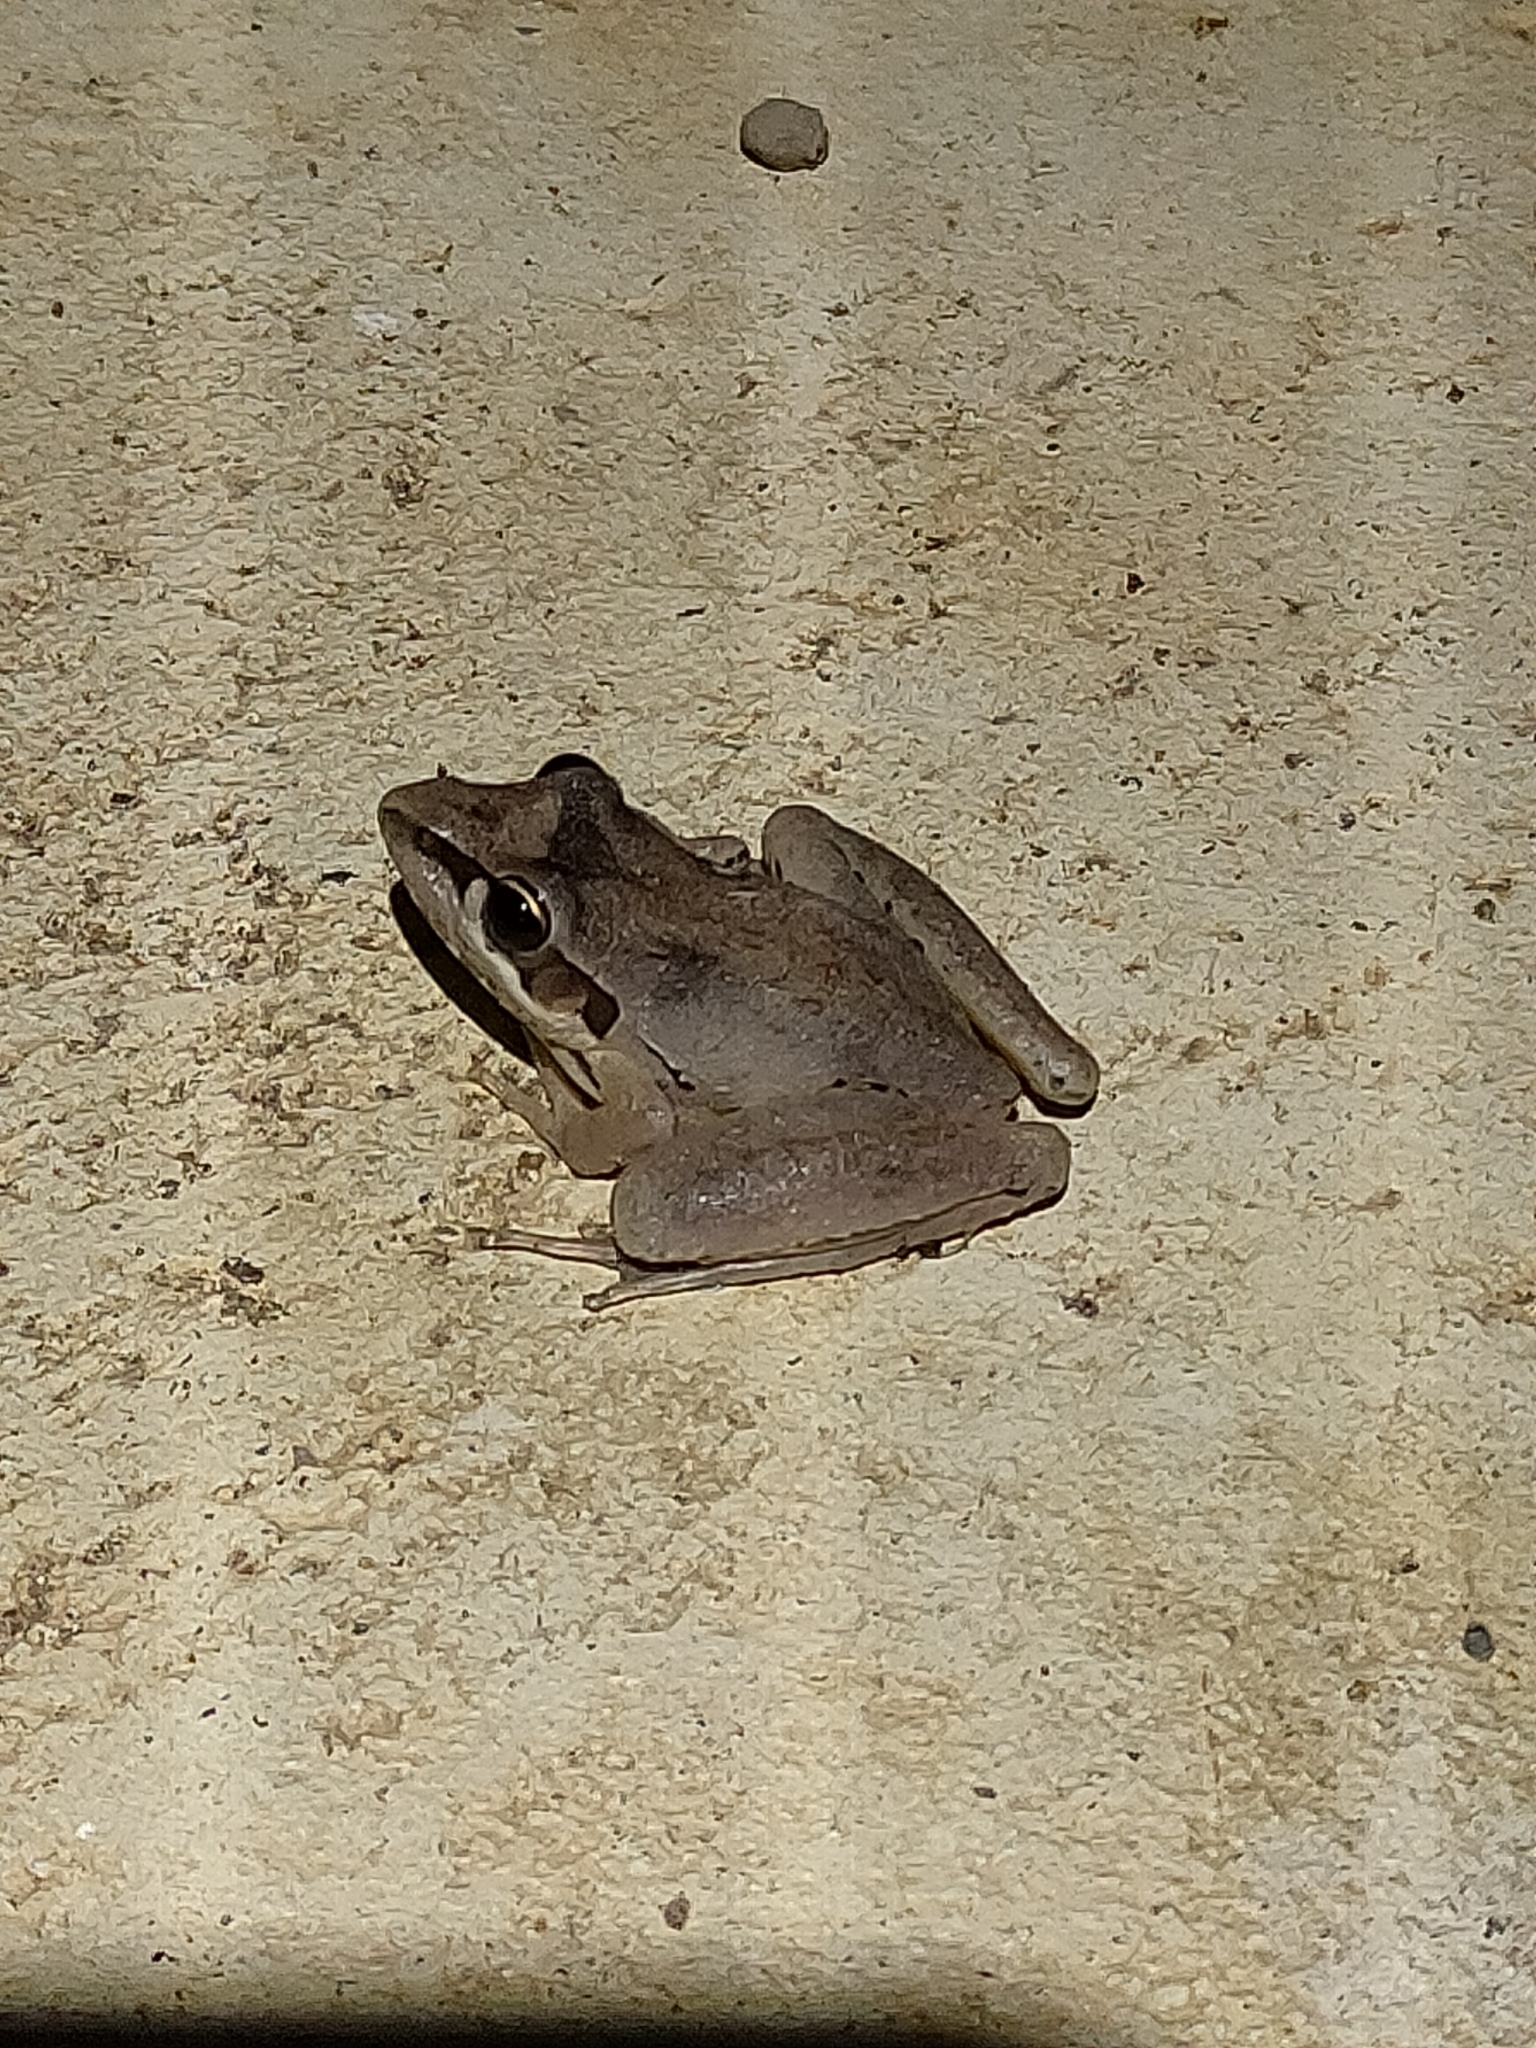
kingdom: Animalia
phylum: Chordata
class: Amphibia
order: Anura
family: Pelodryadidae
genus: Litoria
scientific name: Litoria latopalmata
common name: Broad-palmed rocket frog
